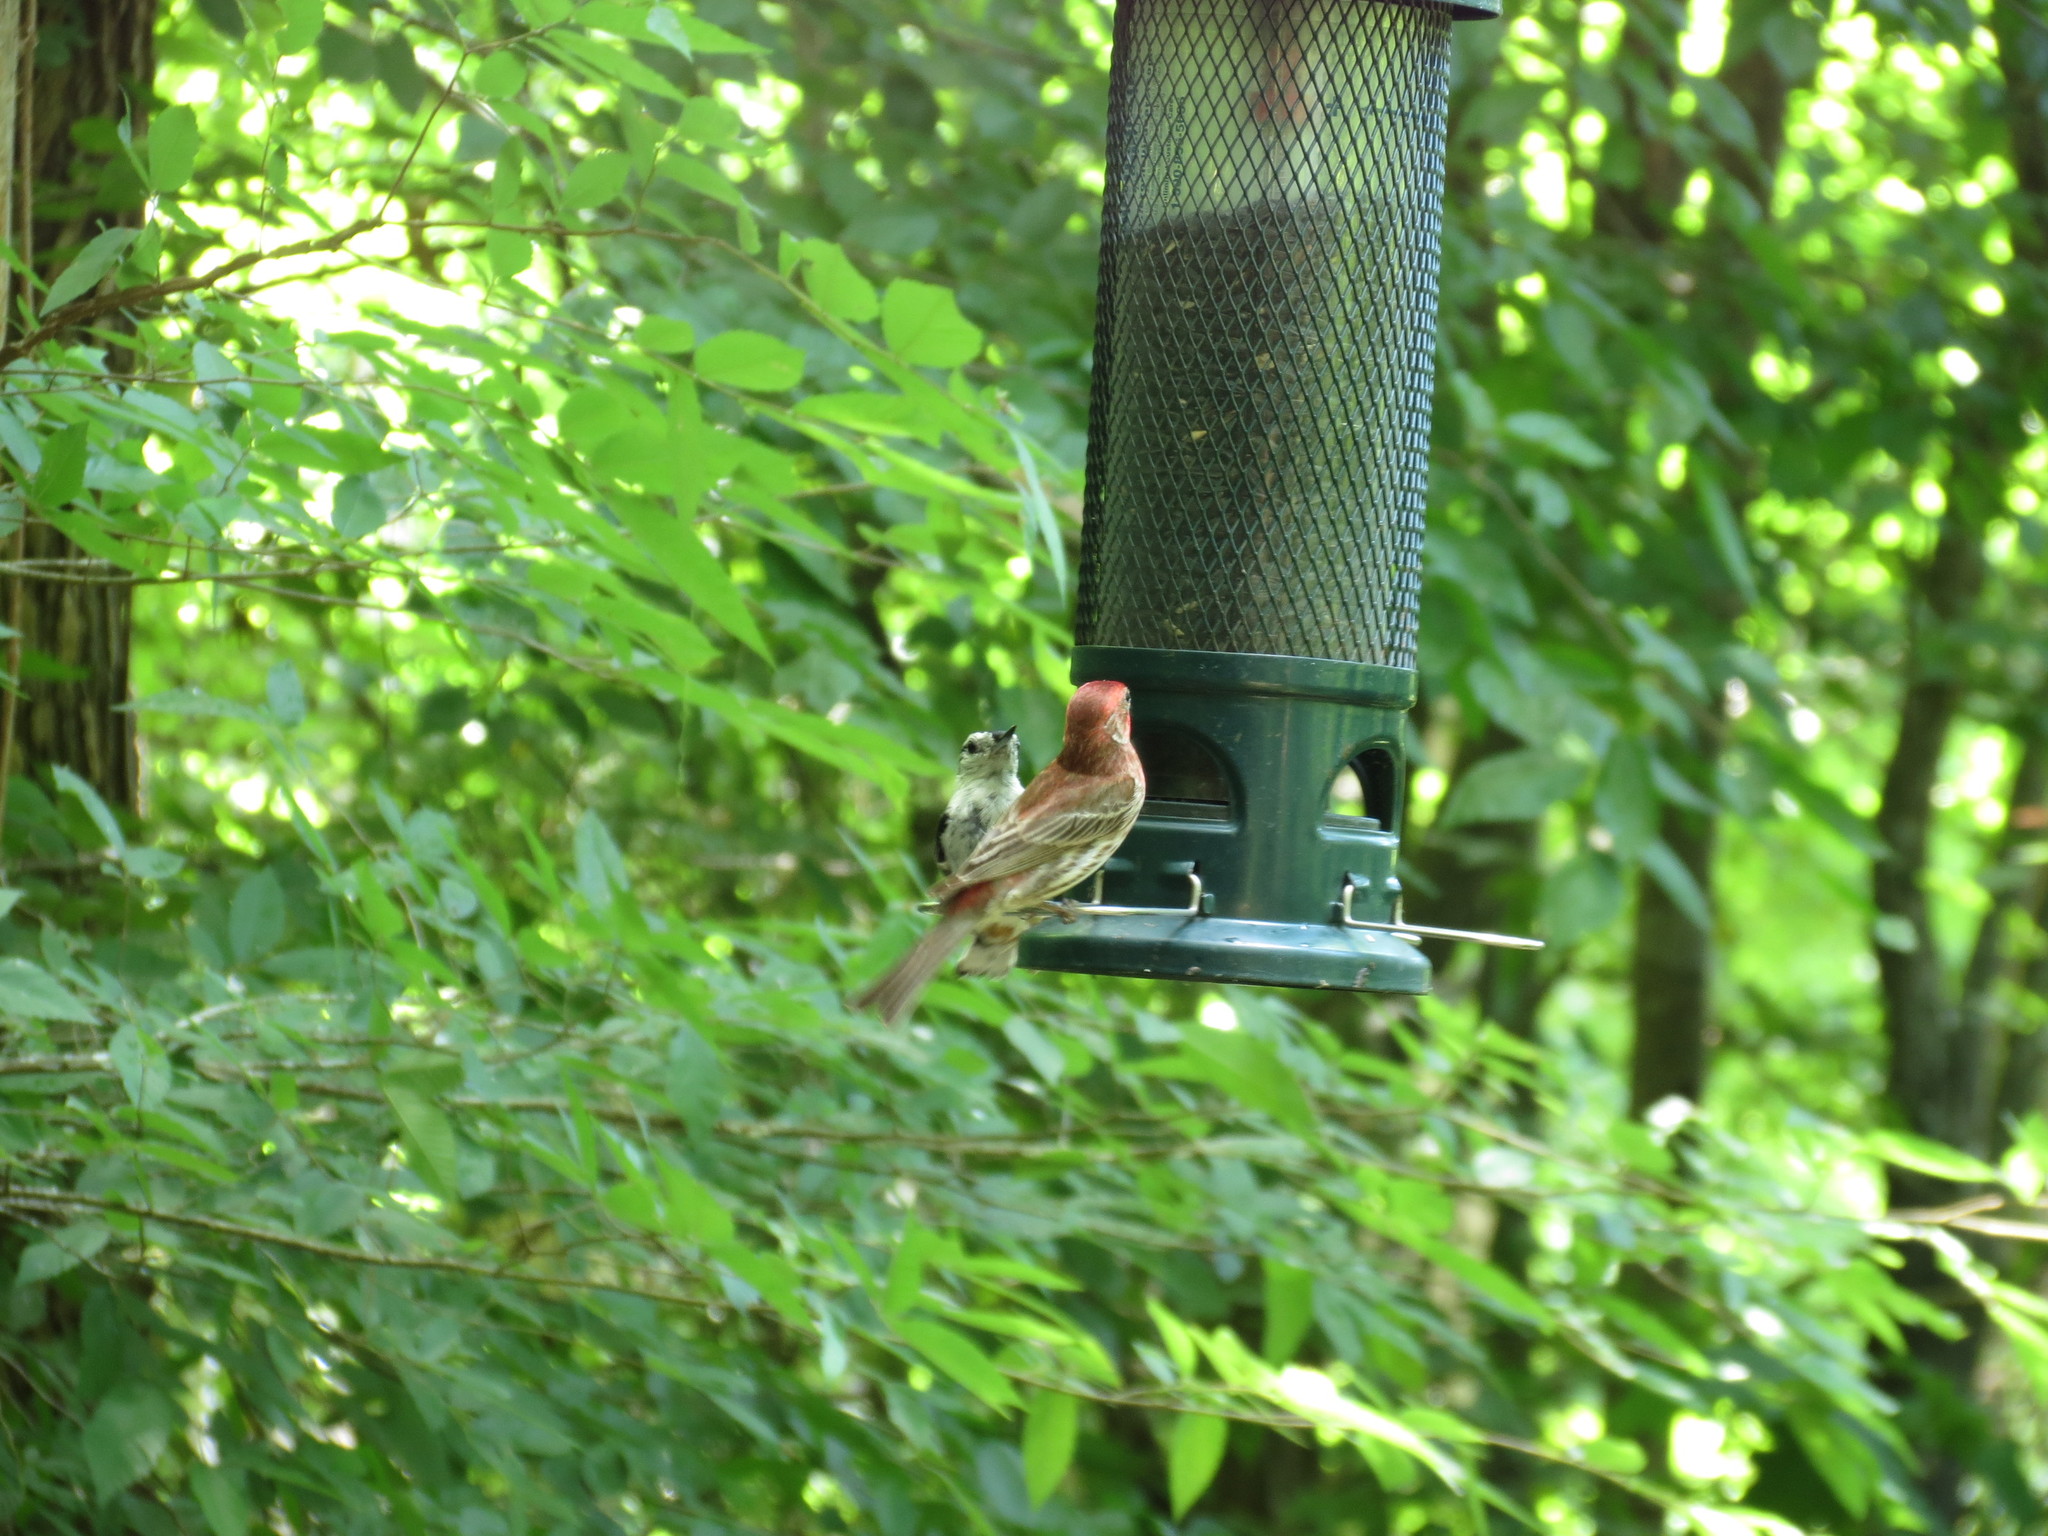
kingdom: Animalia
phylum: Chordata
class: Aves
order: Passeriformes
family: Fringillidae
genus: Haemorhous
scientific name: Haemorhous mexicanus
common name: House finch
